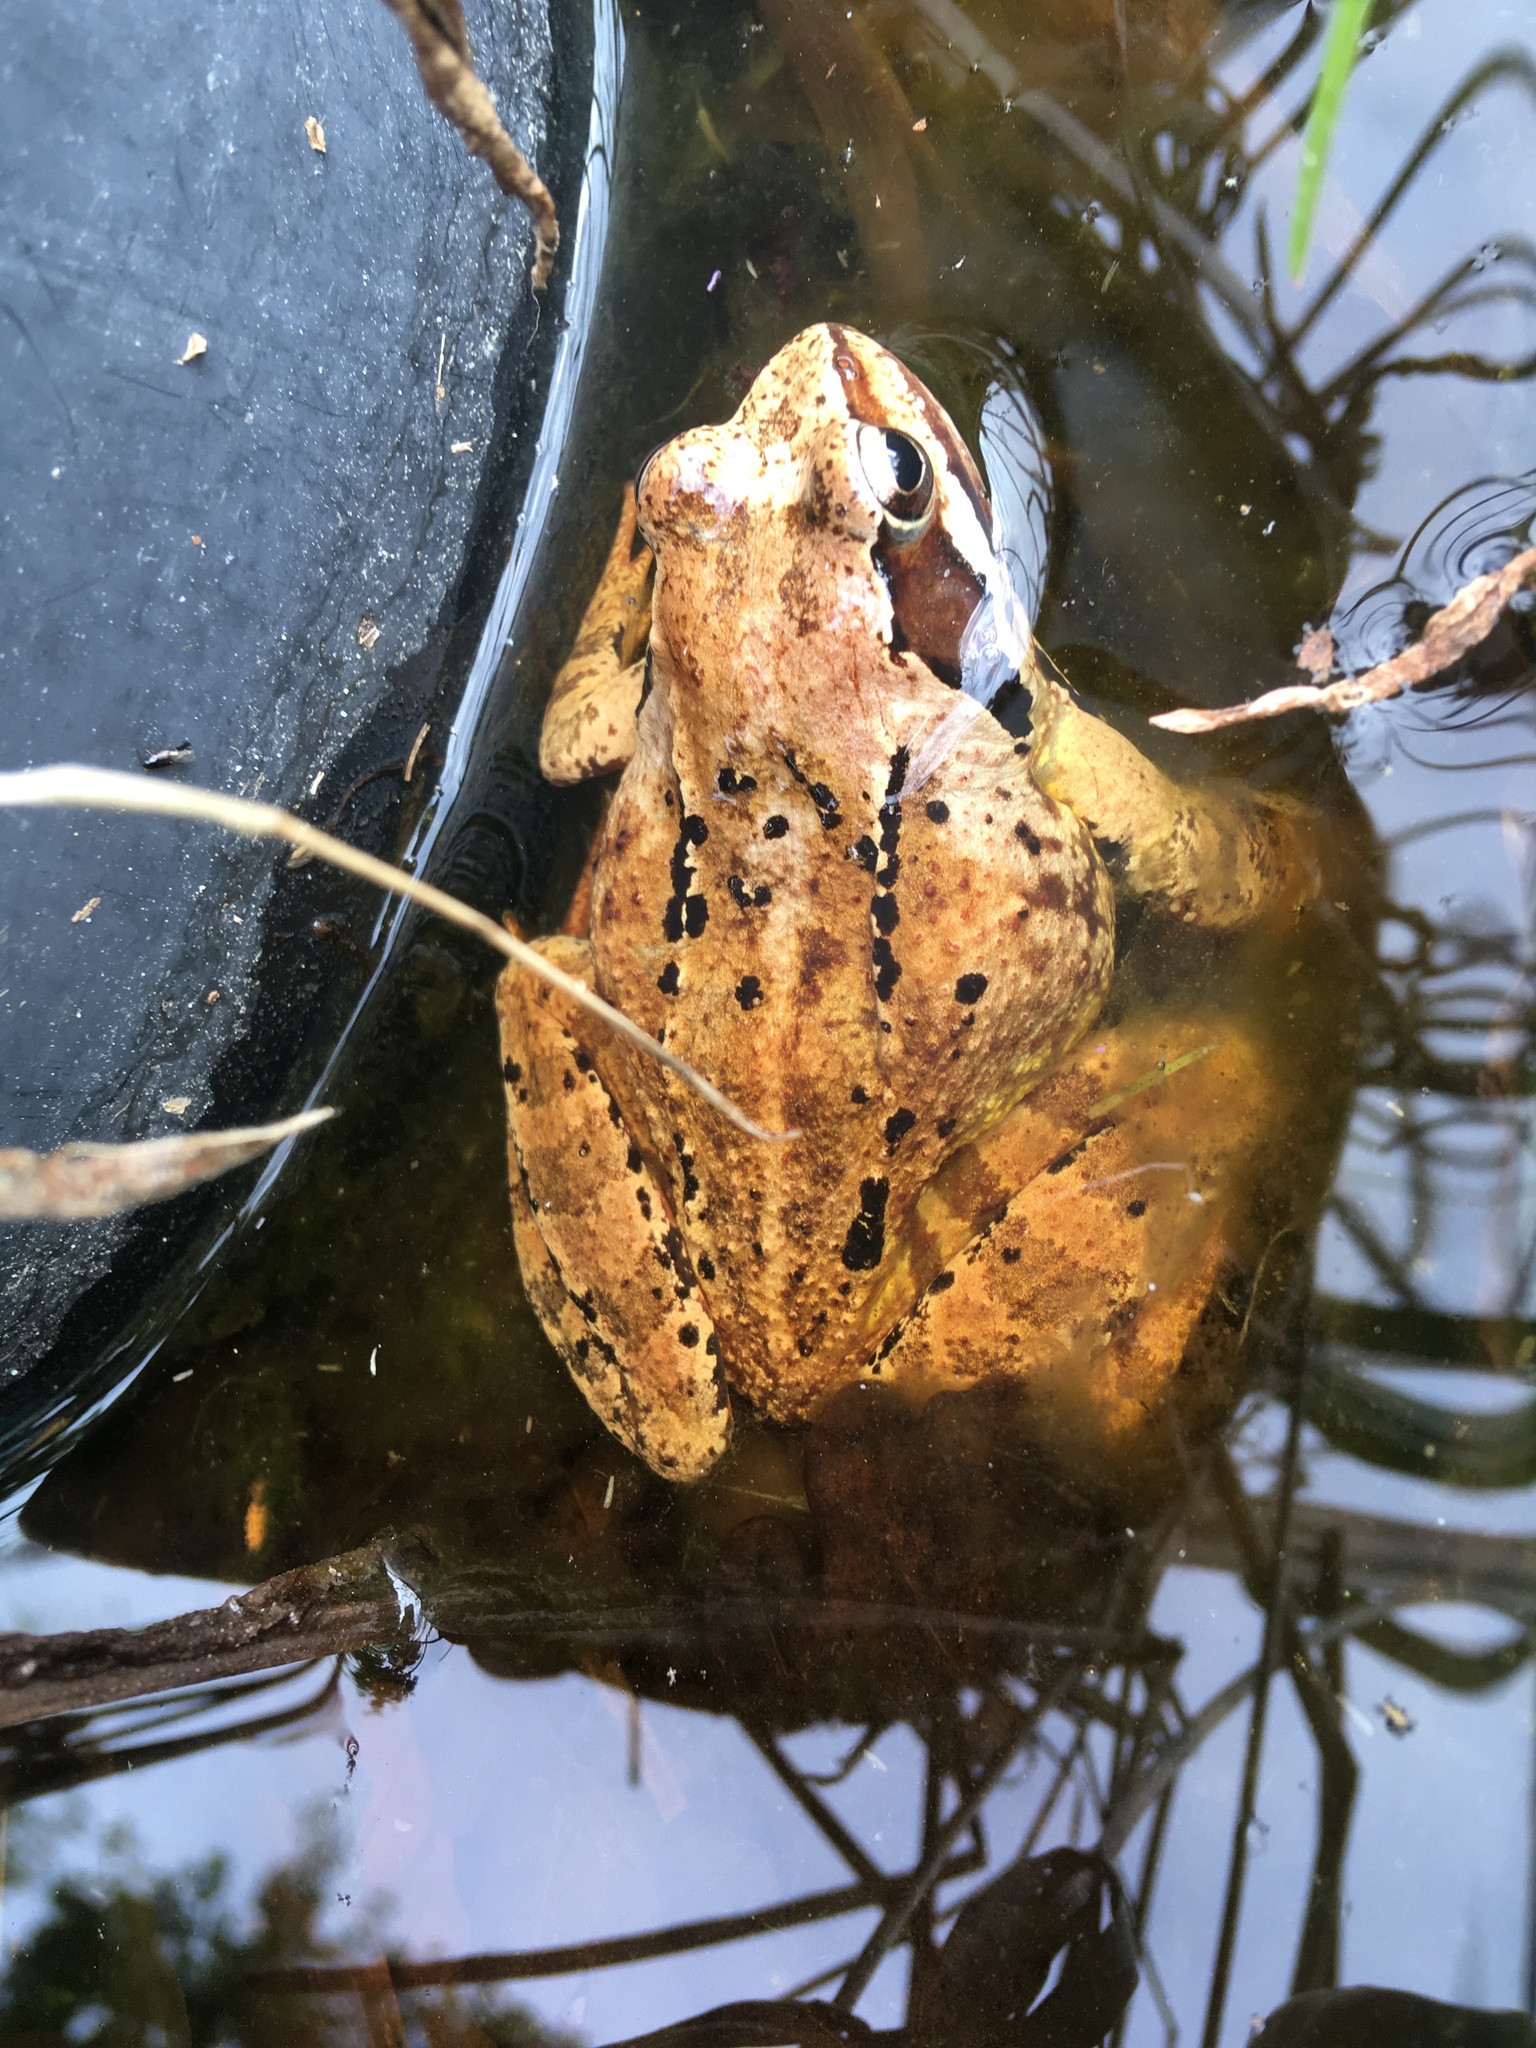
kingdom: Animalia
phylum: Chordata
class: Amphibia
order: Anura
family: Ranidae
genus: Rana
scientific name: Rana temporaria
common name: Common frog
